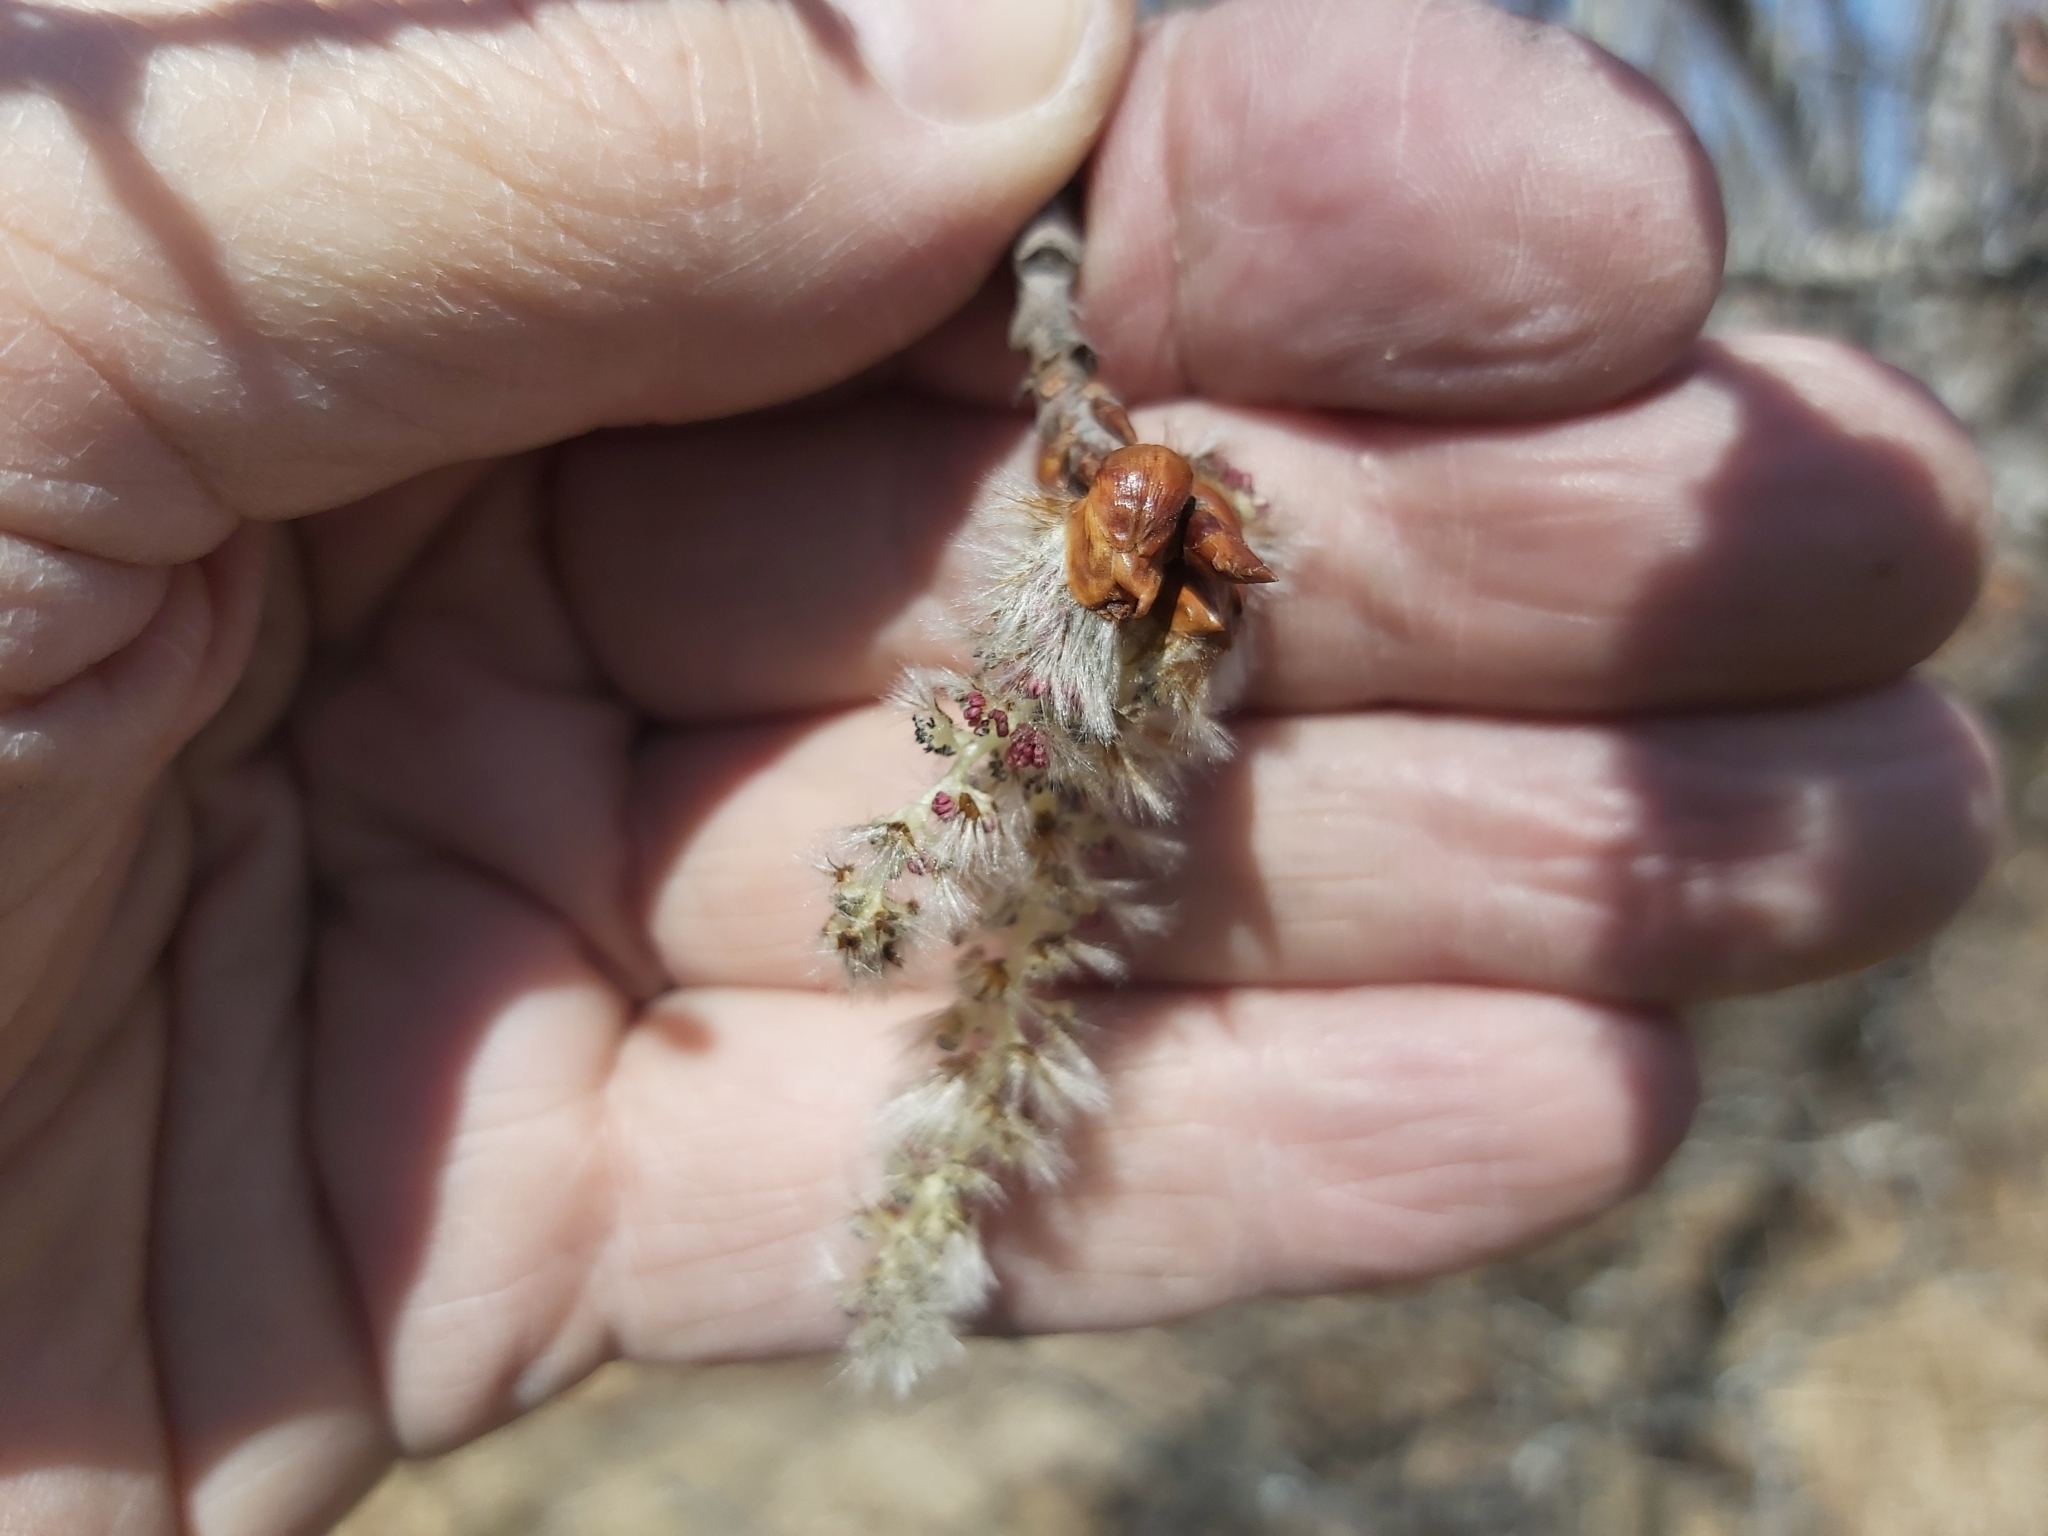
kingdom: Plantae
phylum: Tracheophyta
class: Magnoliopsida
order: Malpighiales
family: Salicaceae
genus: Populus
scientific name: Populus tremuloides
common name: Quaking aspen
